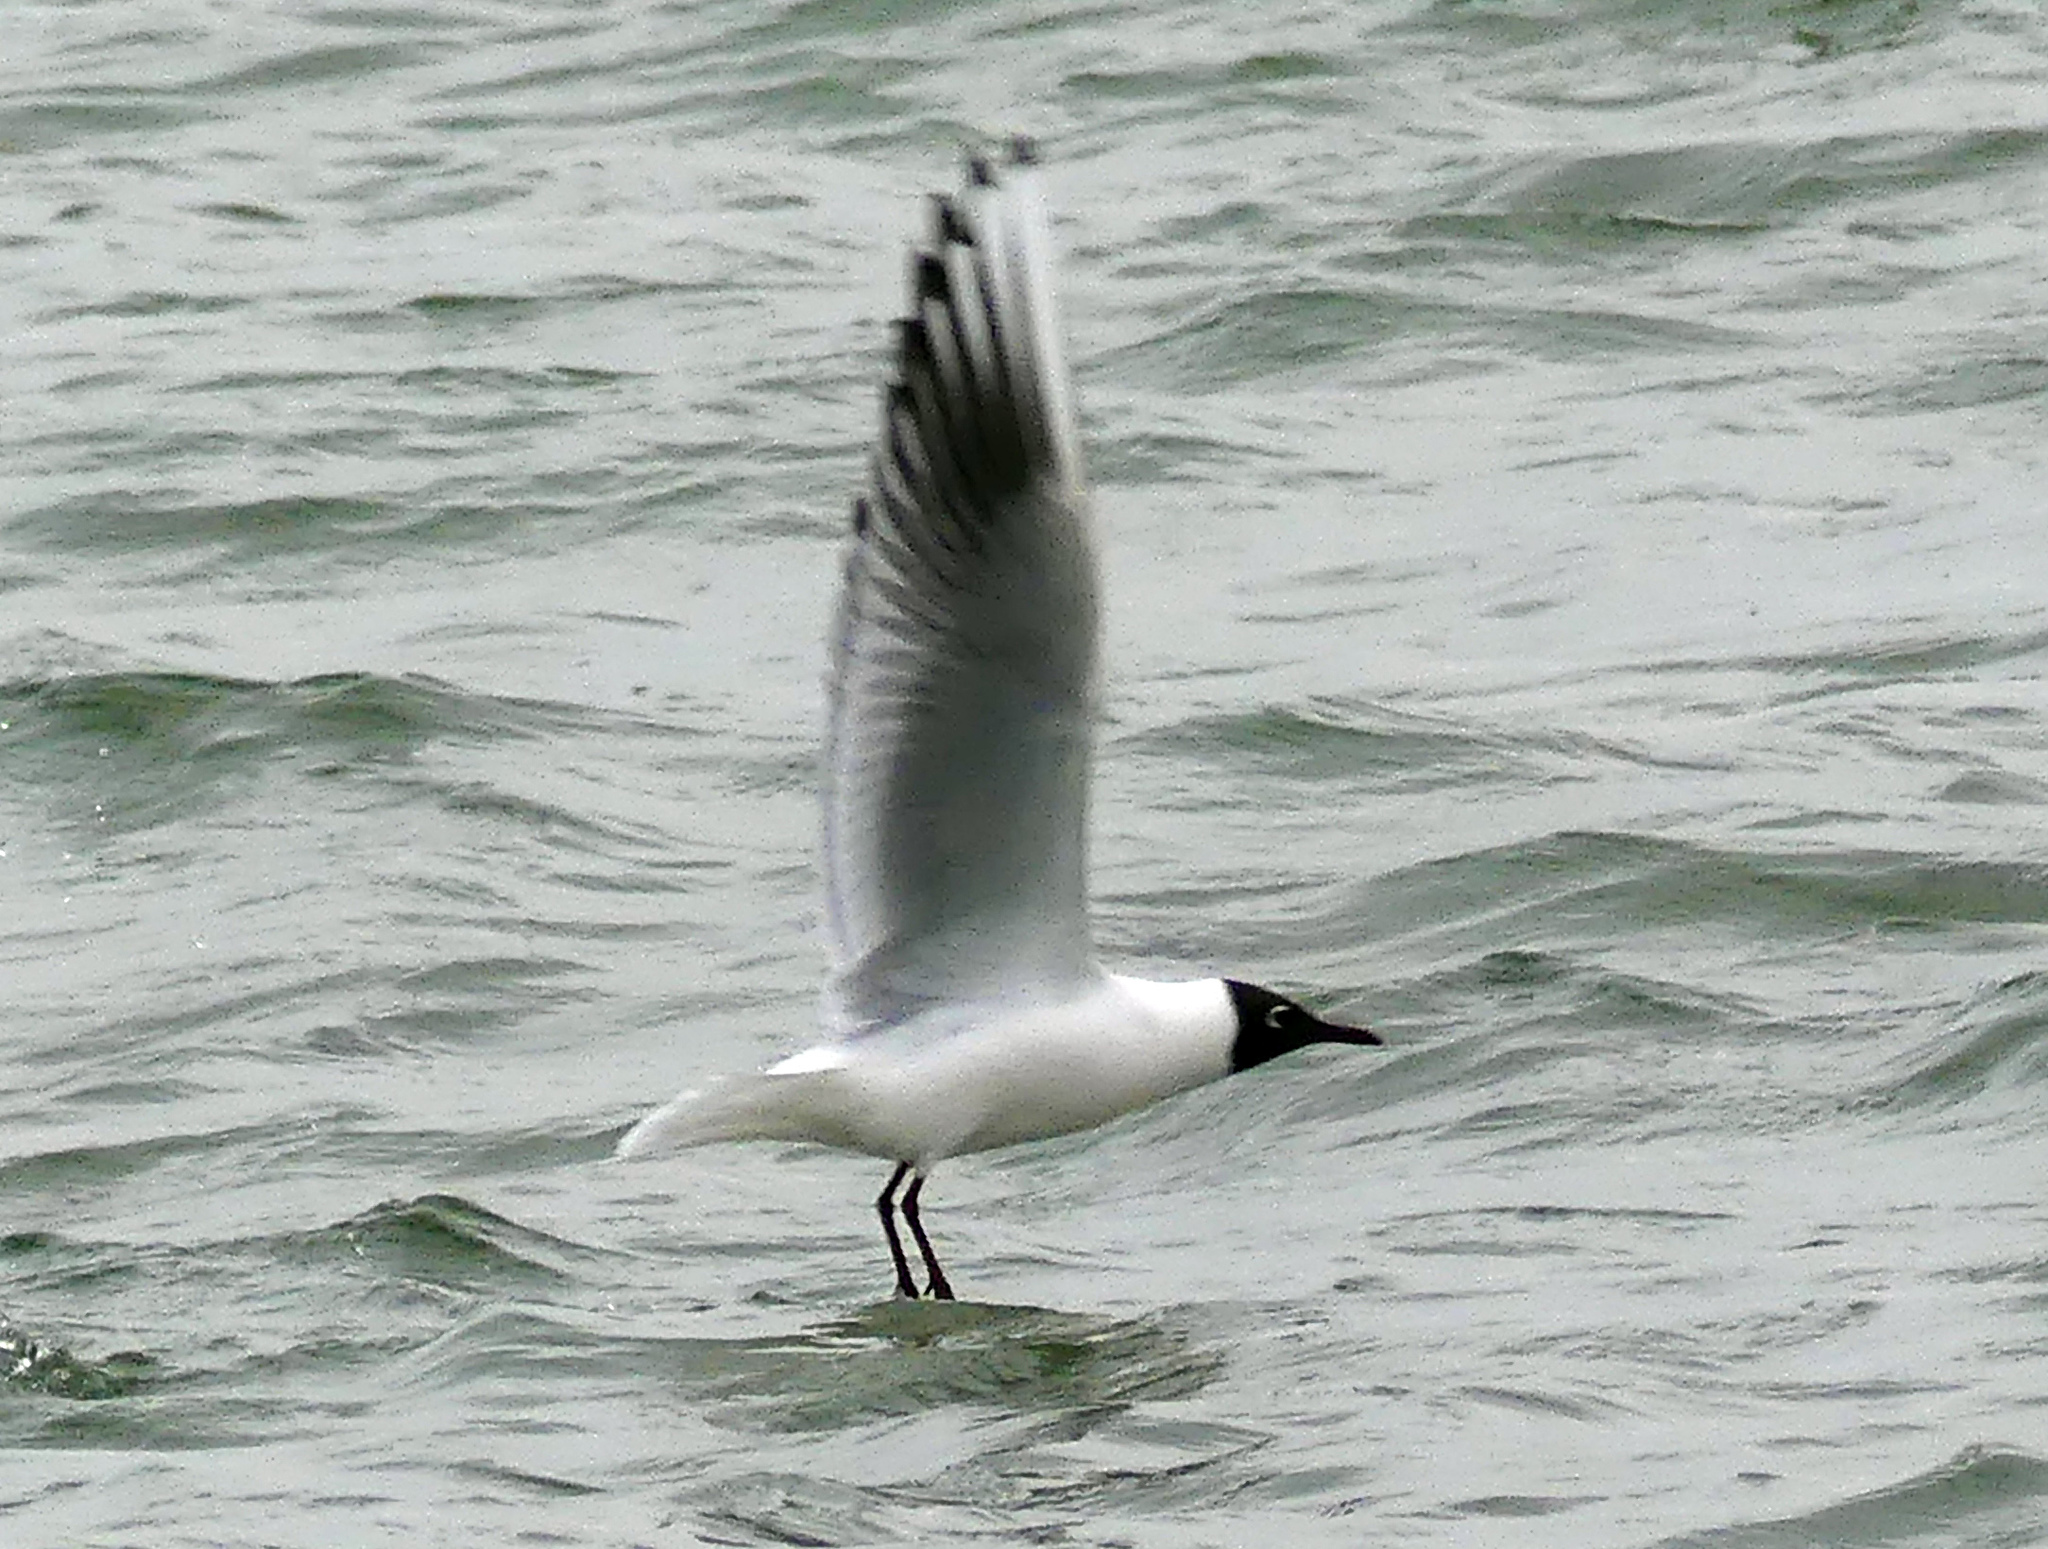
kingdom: Animalia
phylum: Chordata
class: Aves
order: Charadriiformes
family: Laridae
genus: Chroicocephalus
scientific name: Chroicocephalus ridibundus
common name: Black-headed gull
